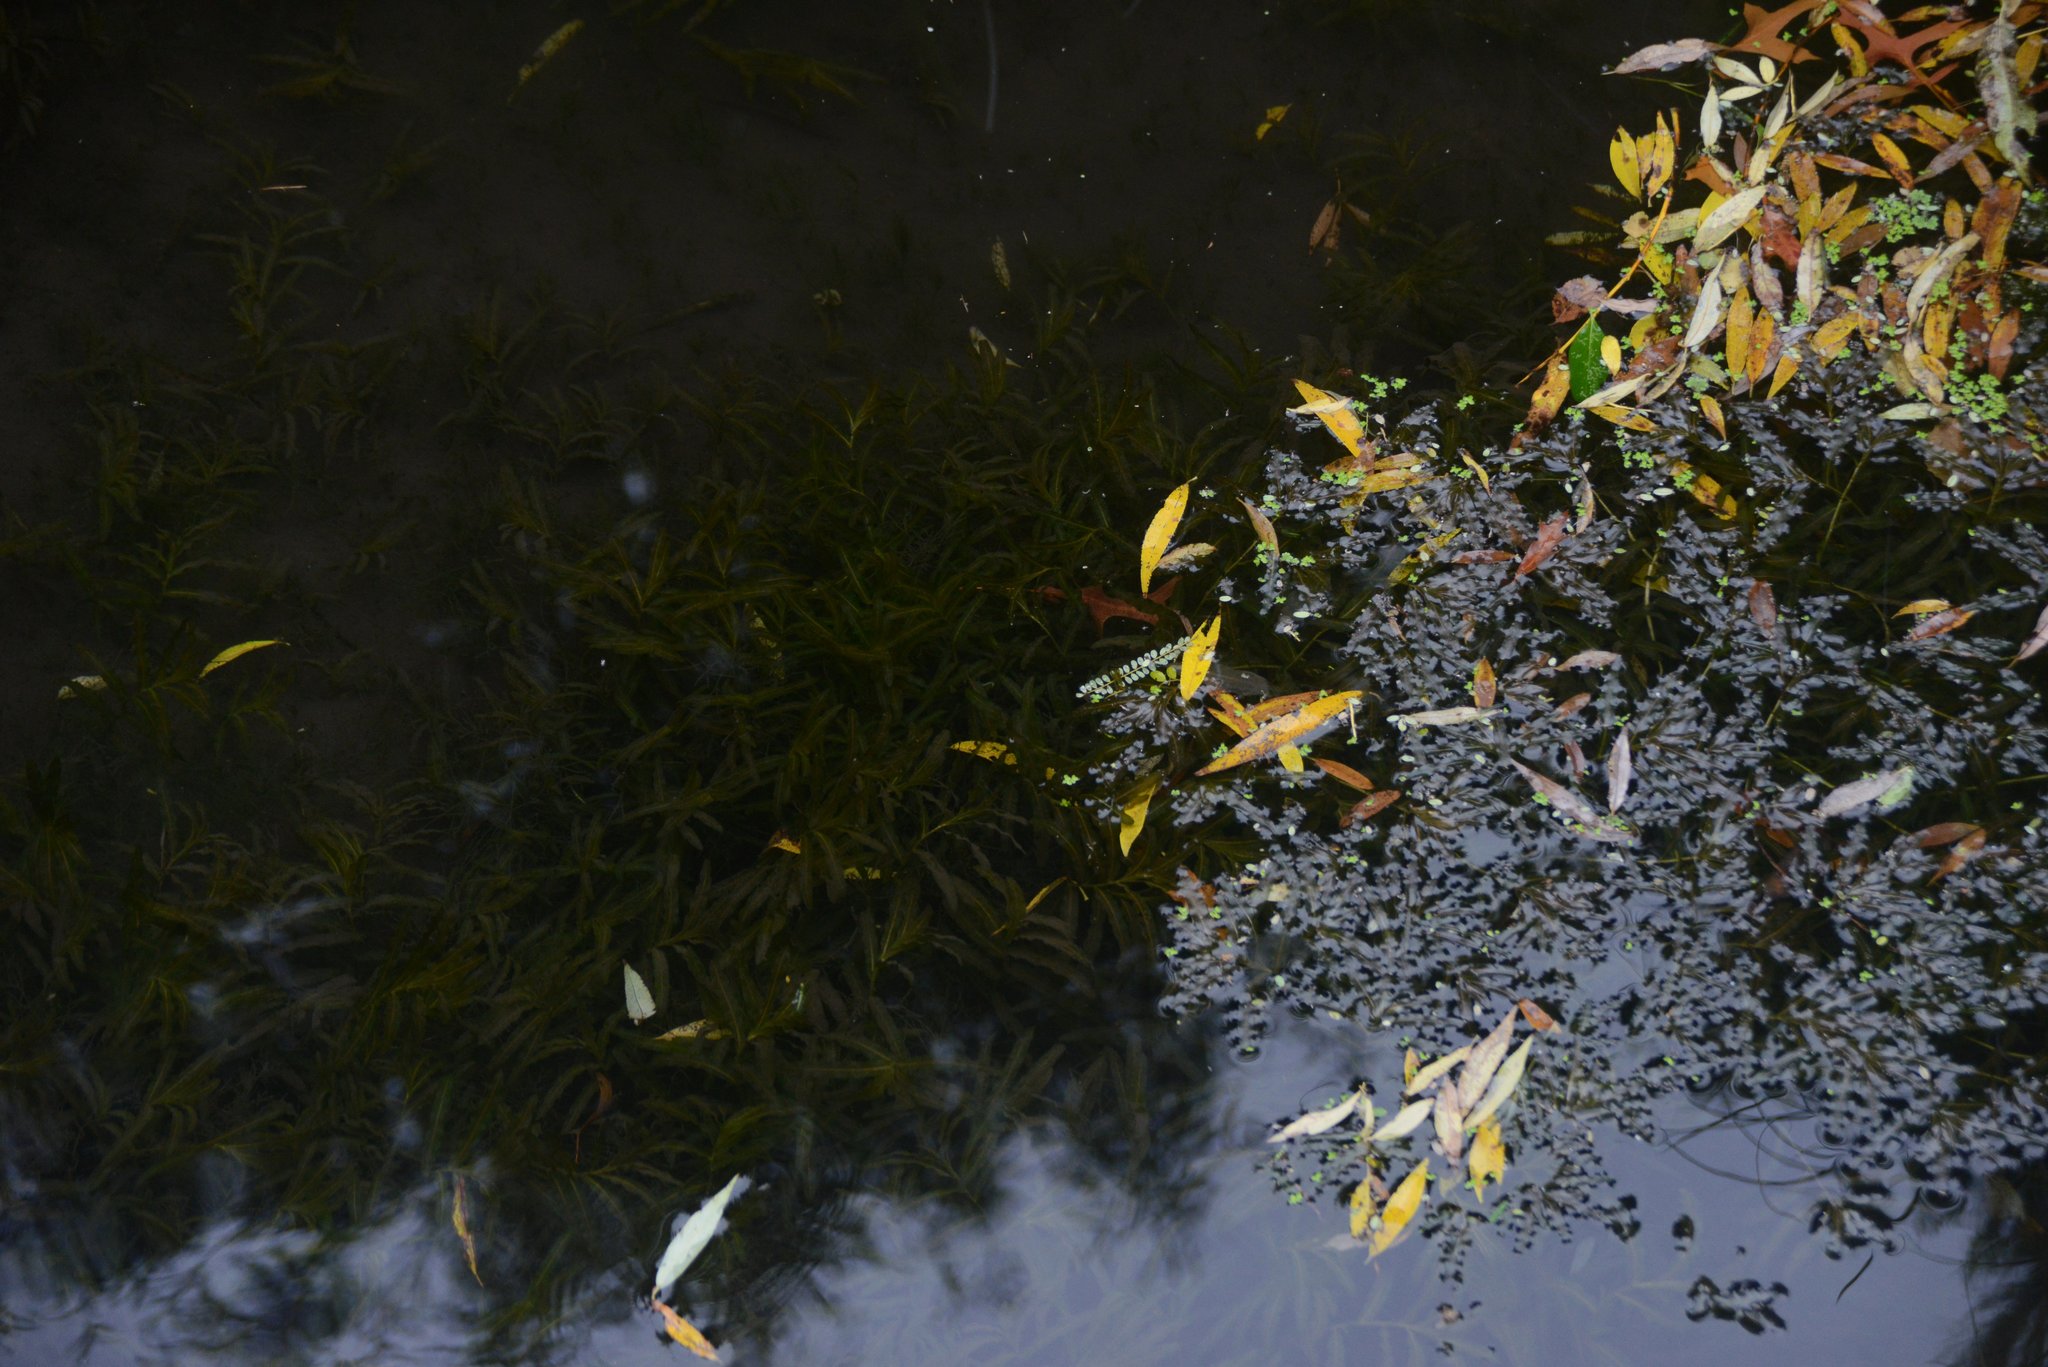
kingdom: Plantae
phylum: Tracheophyta
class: Liliopsida
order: Alismatales
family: Potamogetonaceae
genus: Potamogeton
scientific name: Potamogeton crispus
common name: Curled pondweed
